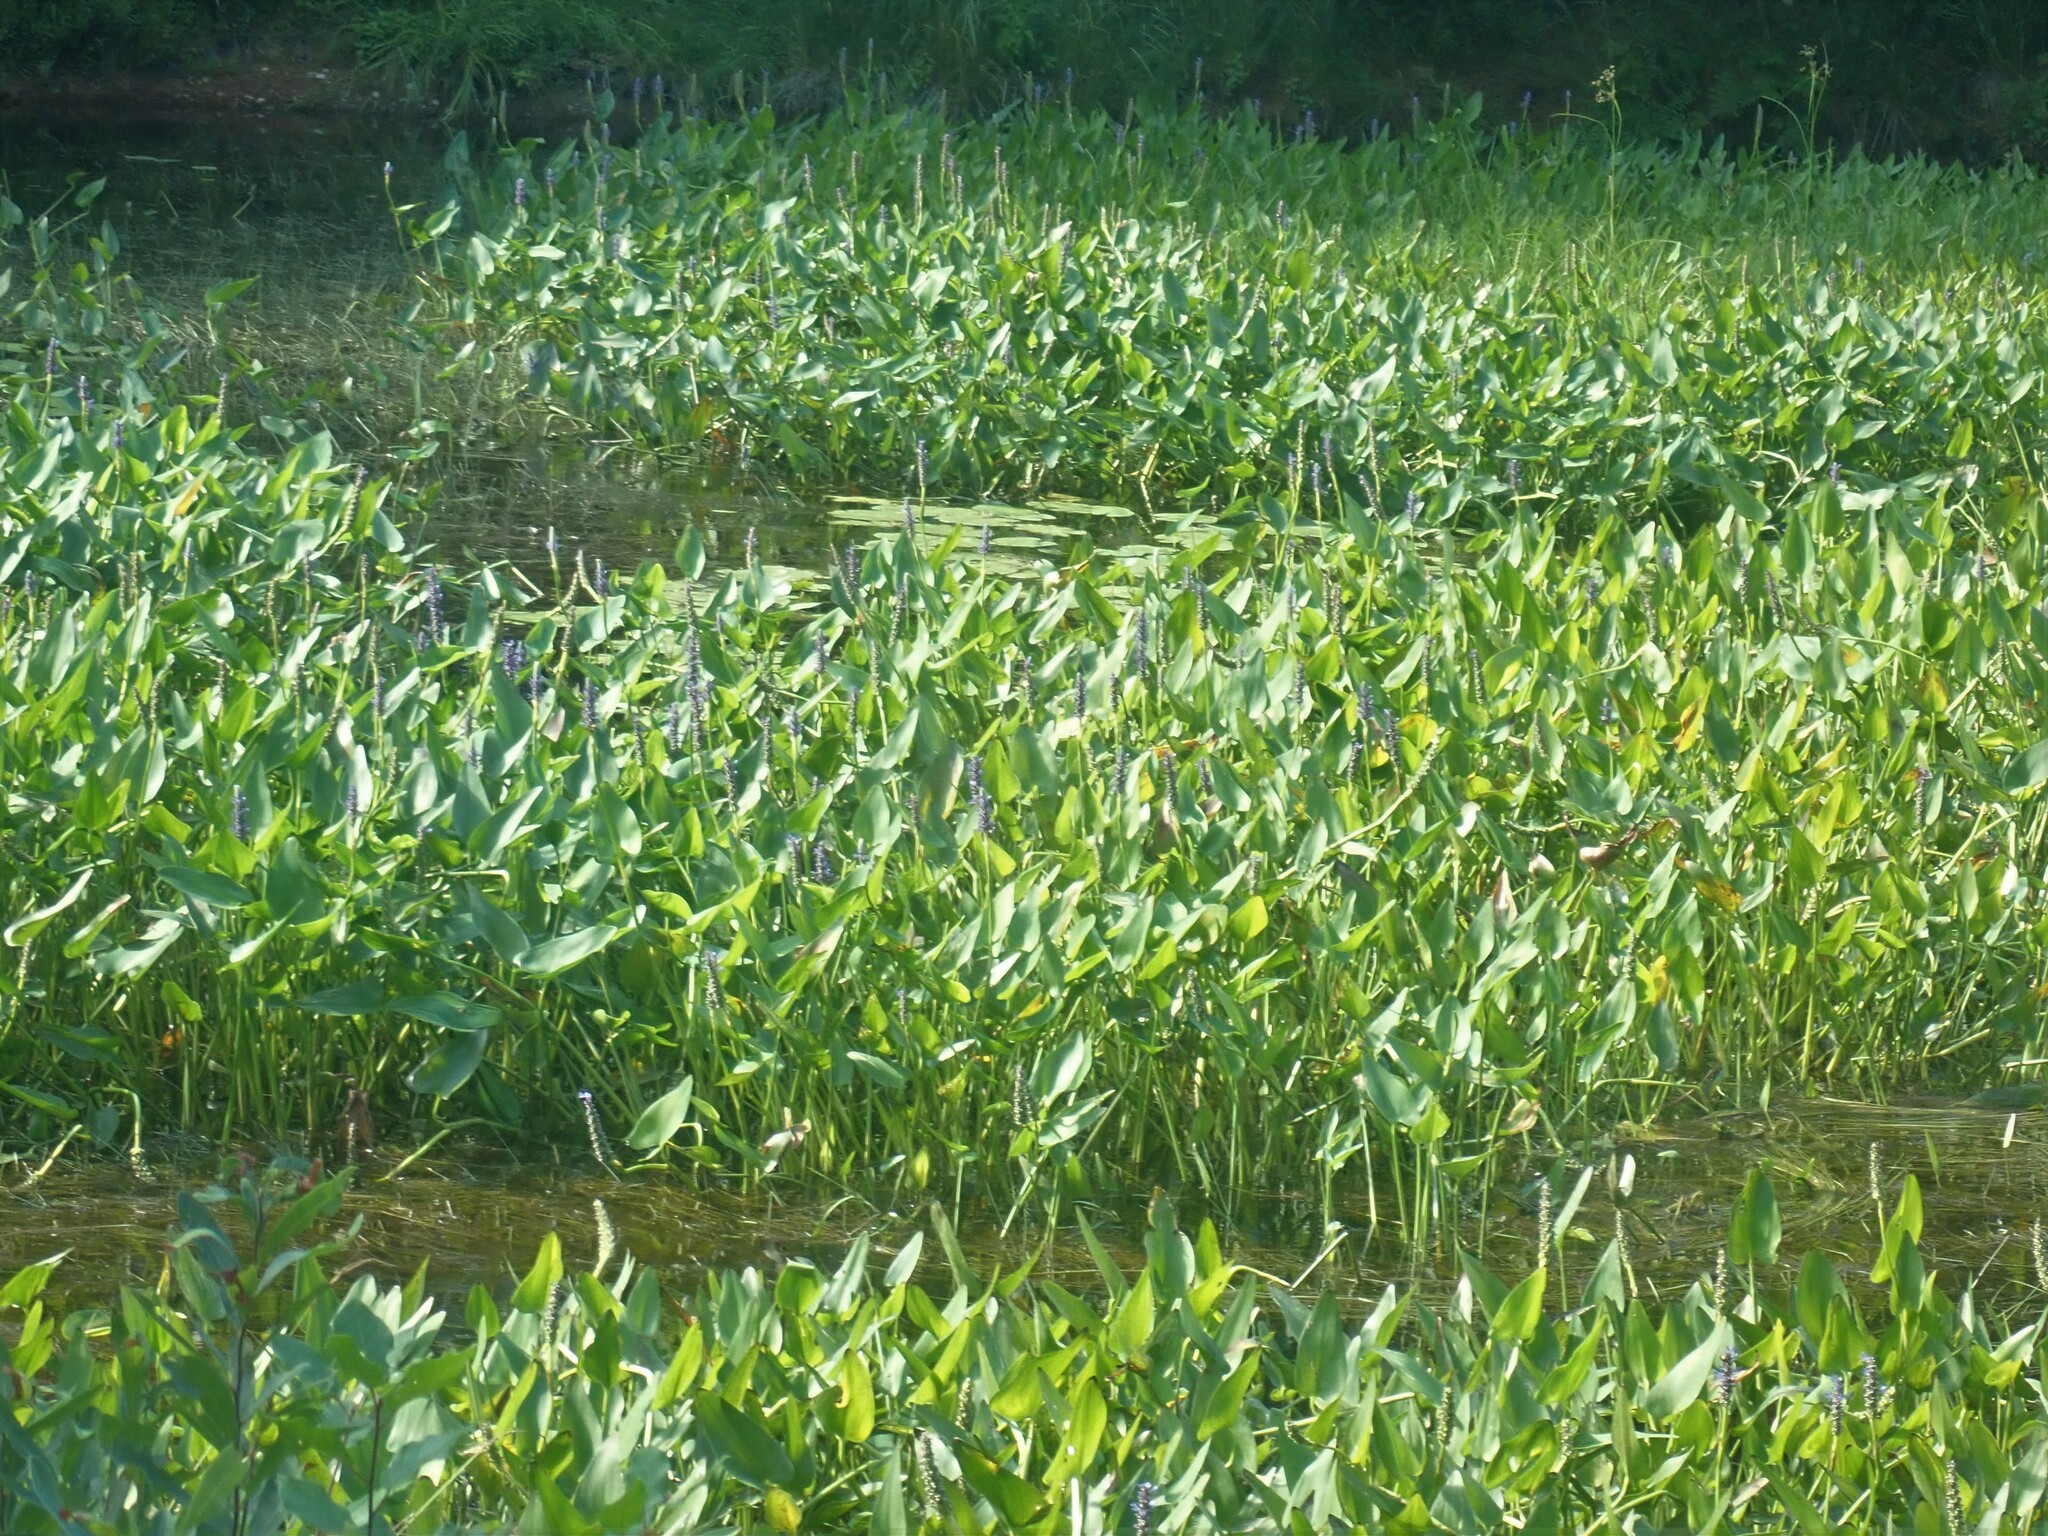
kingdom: Plantae
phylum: Tracheophyta
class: Liliopsida
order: Commelinales
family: Pontederiaceae
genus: Pontederia
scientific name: Pontederia cordata
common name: Pickerelweed
